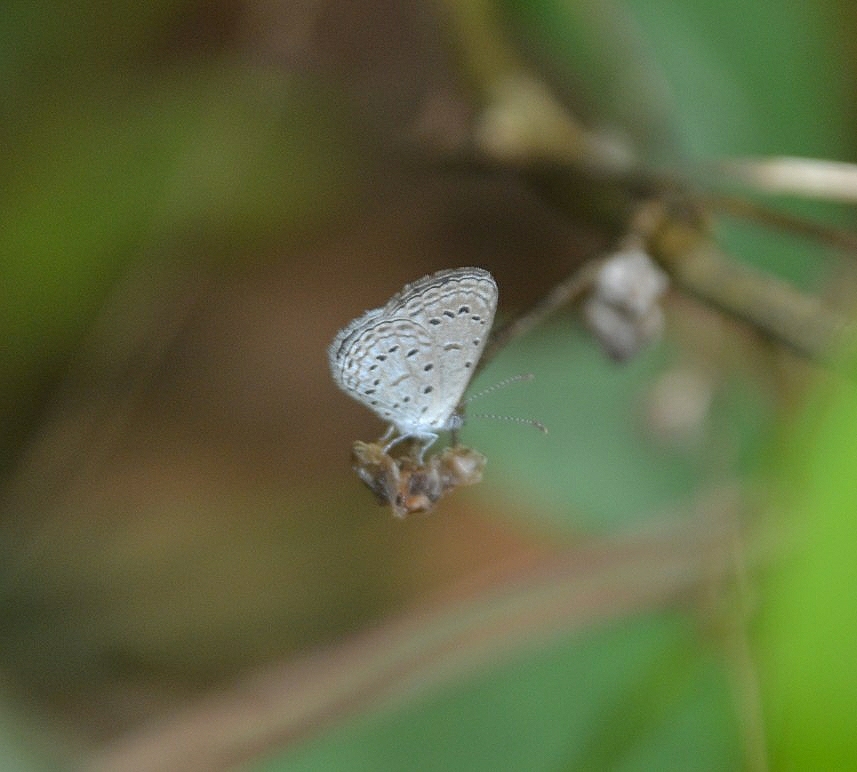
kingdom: Animalia
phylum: Arthropoda
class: Insecta
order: Lepidoptera
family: Lycaenidae
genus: Zizula
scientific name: Zizula hylax
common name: Gaika blue
